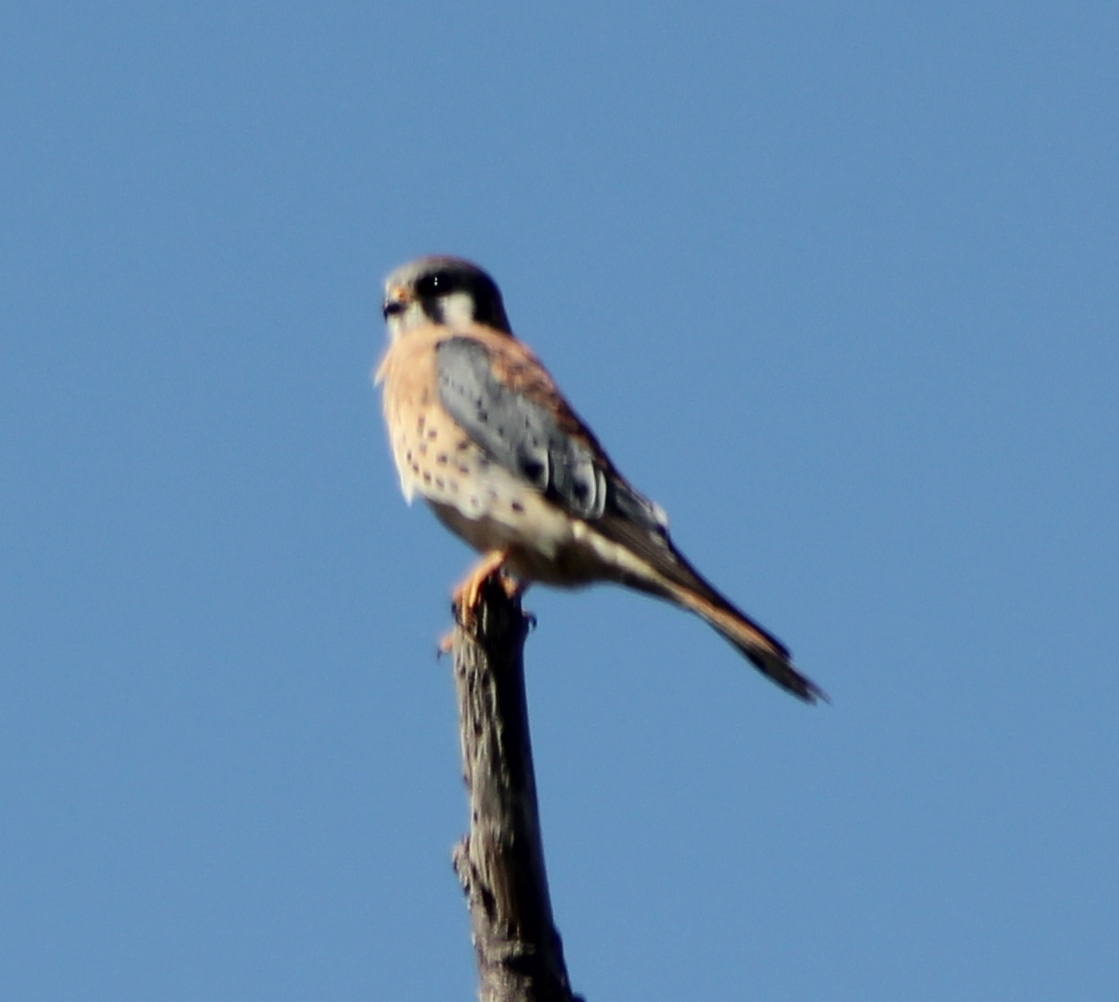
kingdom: Animalia
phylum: Chordata
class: Aves
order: Falconiformes
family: Falconidae
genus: Falco
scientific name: Falco sparverius
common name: American kestrel
